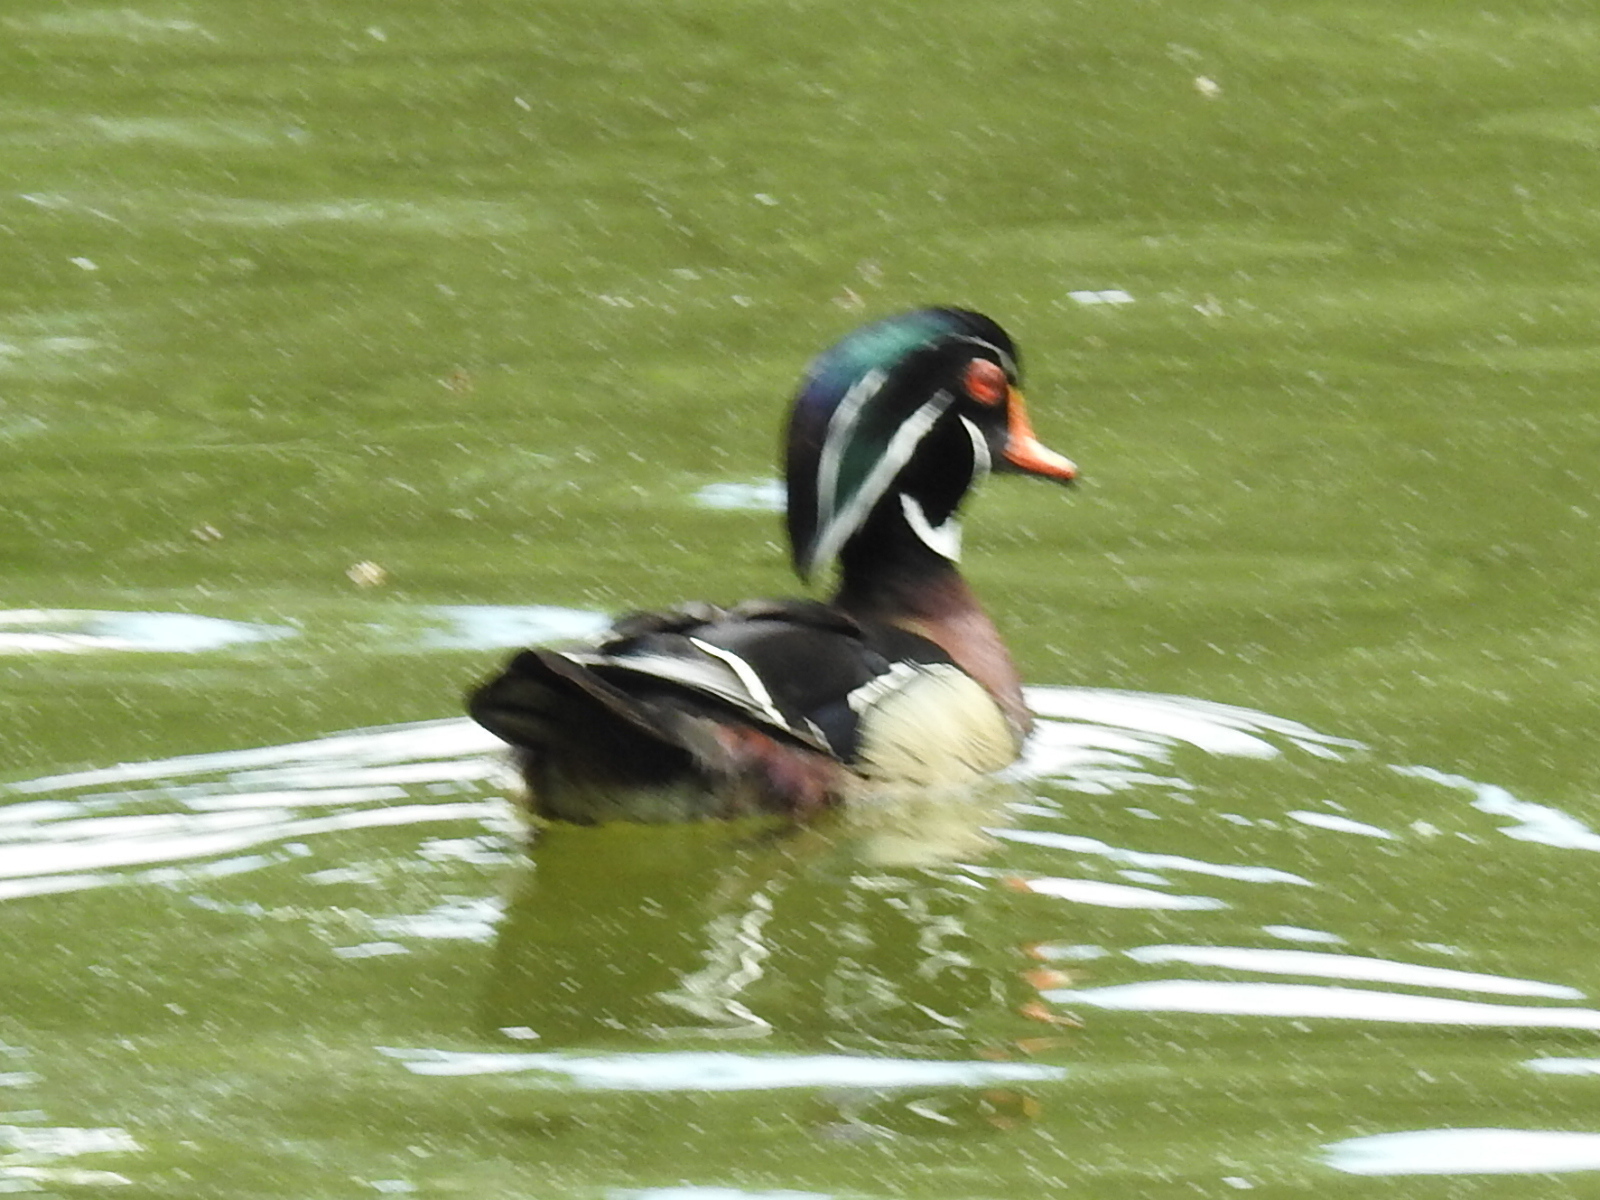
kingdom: Animalia
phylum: Chordata
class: Aves
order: Anseriformes
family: Anatidae
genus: Aix
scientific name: Aix sponsa
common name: Wood duck
